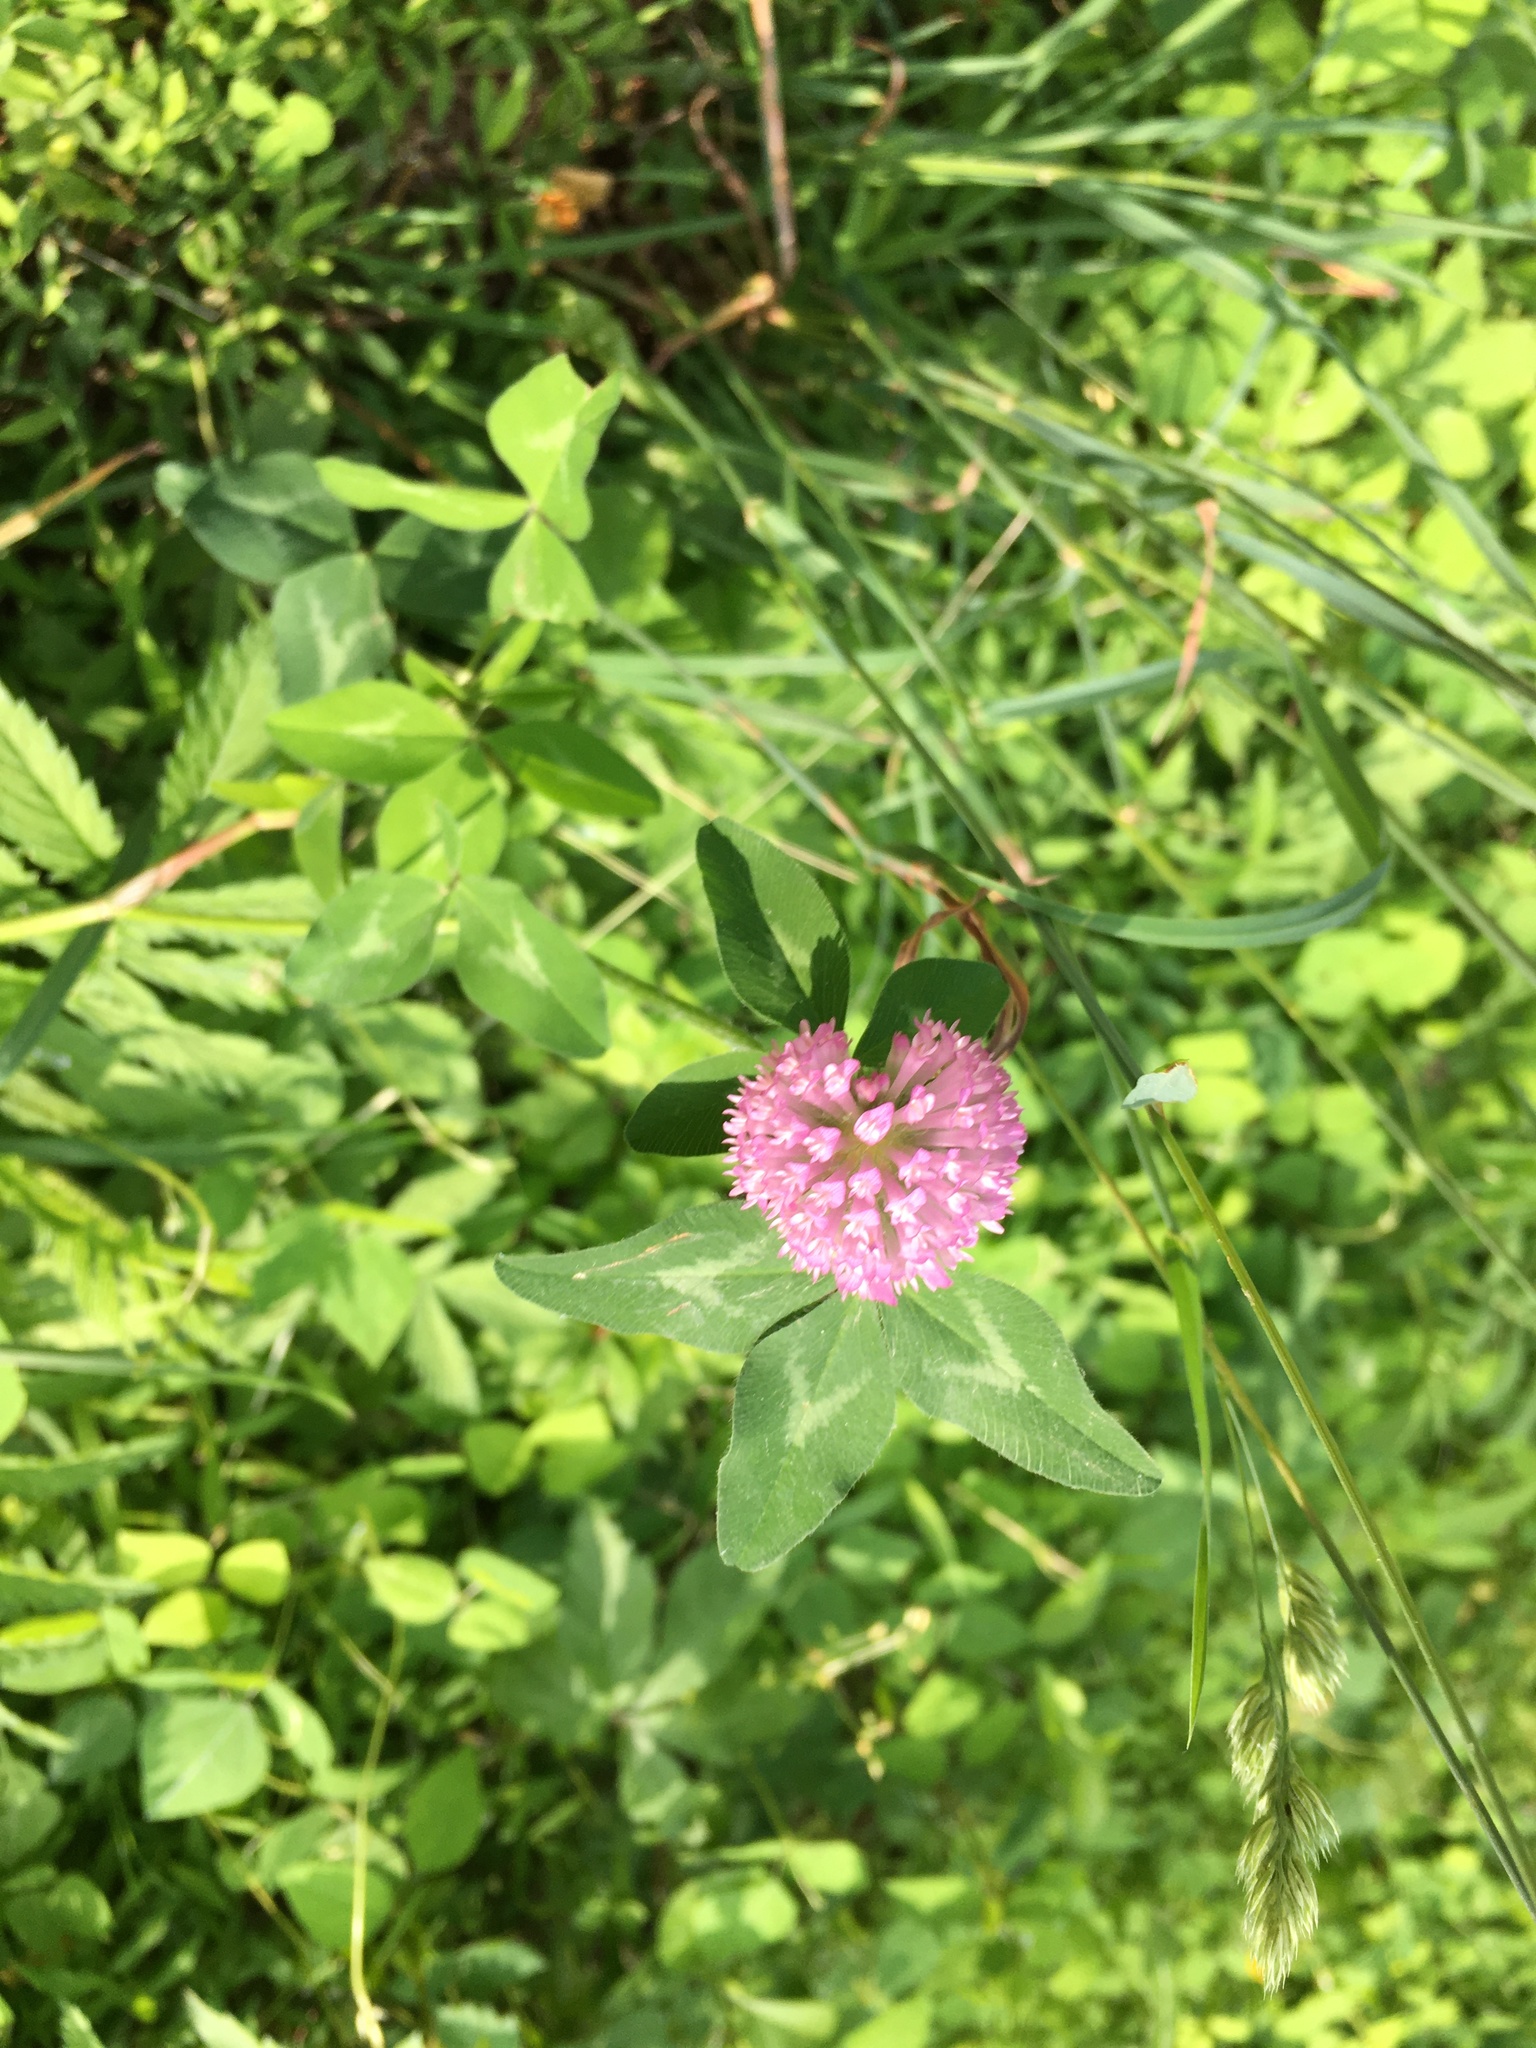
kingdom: Plantae
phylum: Tracheophyta
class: Magnoliopsida
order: Fabales
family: Fabaceae
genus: Trifolium
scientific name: Trifolium pratense
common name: Red clover
